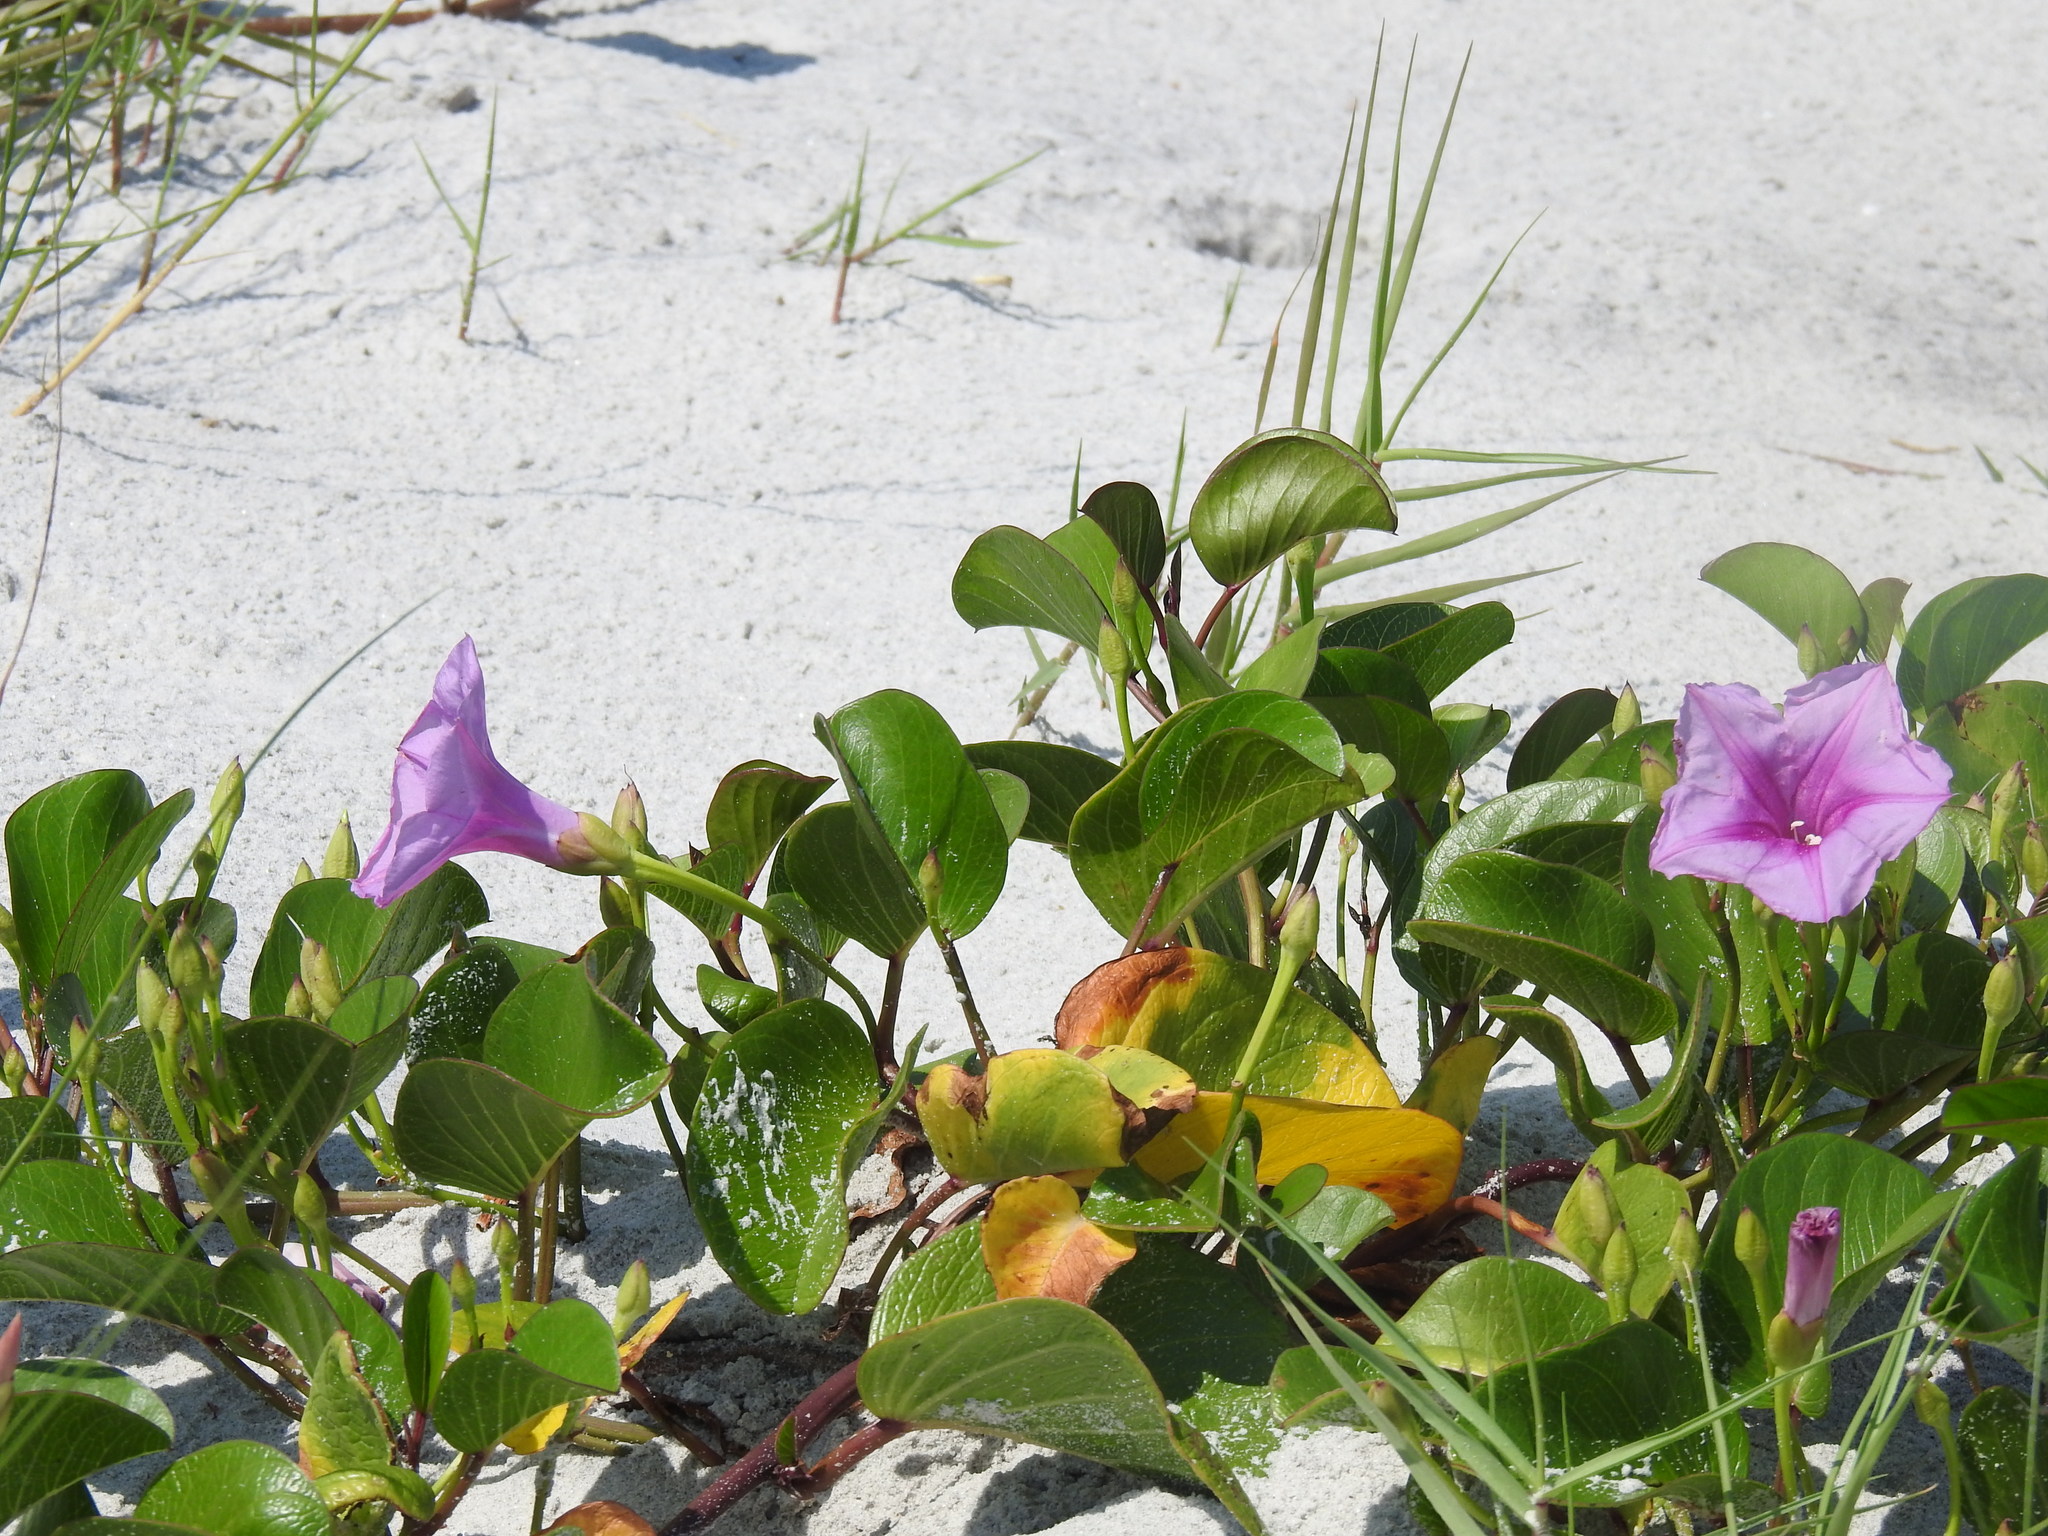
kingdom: Plantae
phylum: Tracheophyta
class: Magnoliopsida
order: Solanales
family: Convolvulaceae
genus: Ipomoea
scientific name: Ipomoea pes-caprae
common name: Beach morning glory
